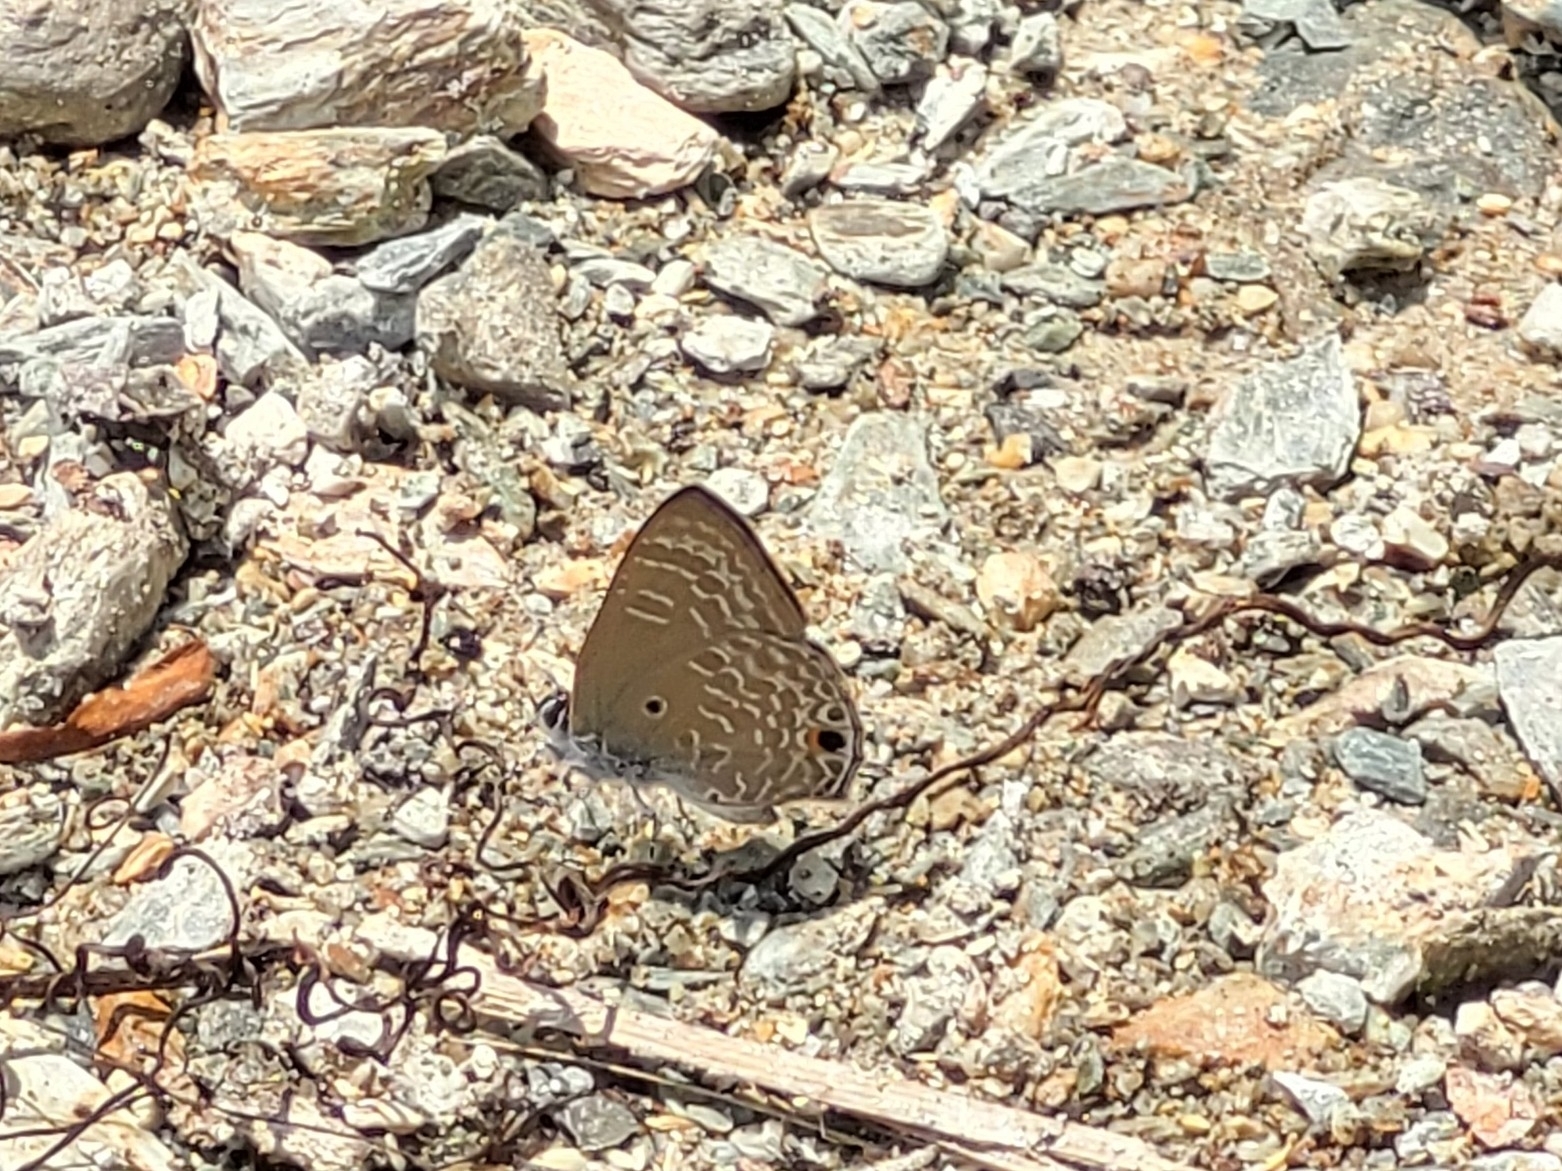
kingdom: Animalia
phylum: Arthropoda
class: Insecta
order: Lepidoptera
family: Lycaenidae
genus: Anthene
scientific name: Anthene lycaenina
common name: Pointed ciliate blue
